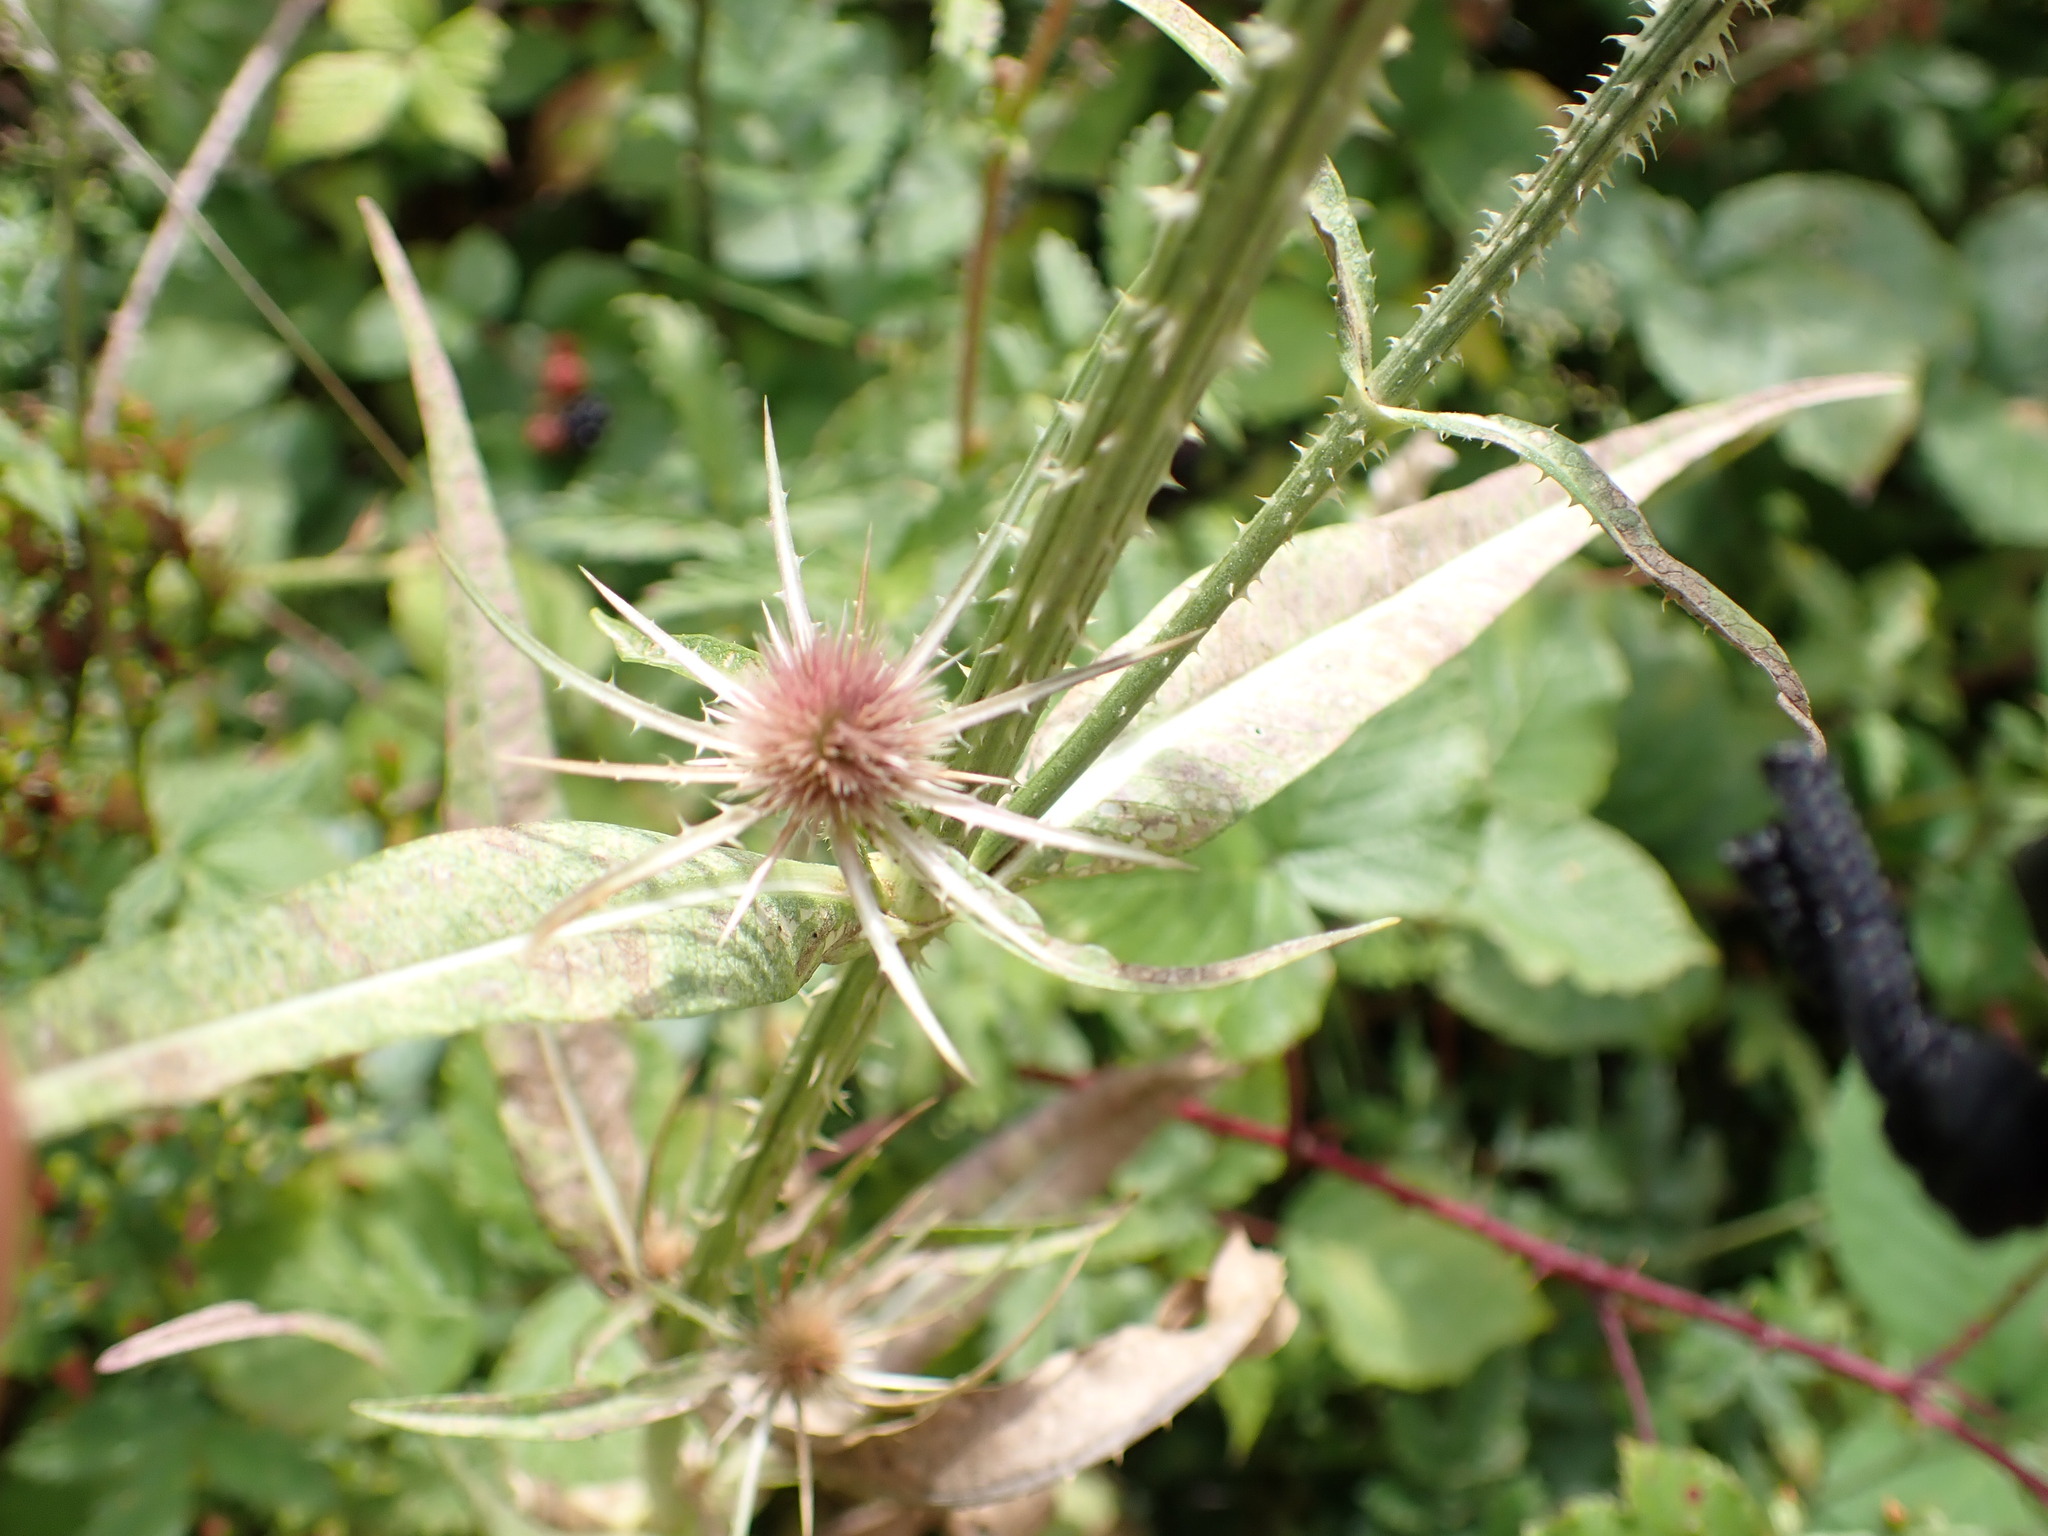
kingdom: Plantae
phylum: Tracheophyta
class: Magnoliopsida
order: Dipsacales
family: Caprifoliaceae
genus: Dipsacus
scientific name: Dipsacus fullonum
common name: Teasel
